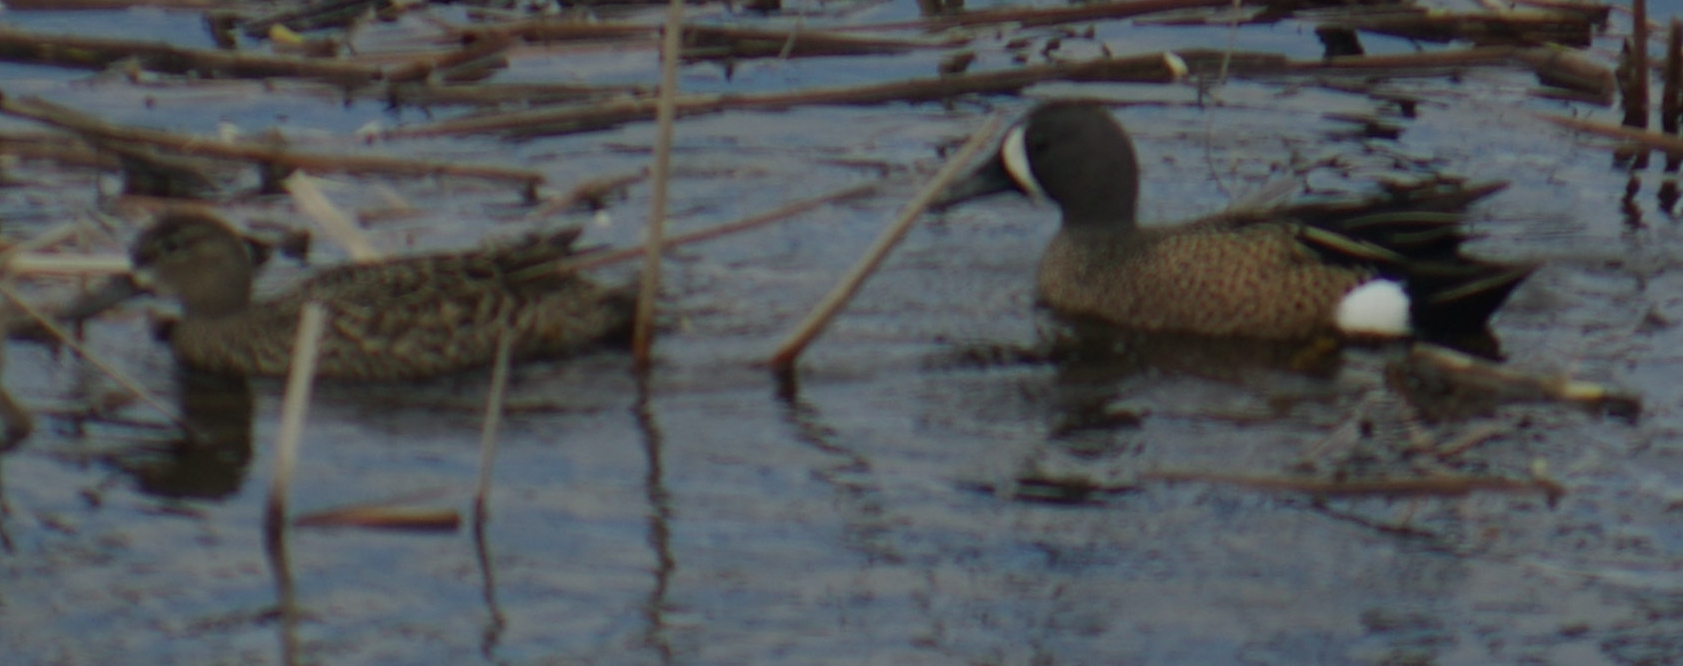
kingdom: Animalia
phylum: Chordata
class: Aves
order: Anseriformes
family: Anatidae
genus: Spatula
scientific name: Spatula discors
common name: Blue-winged teal
